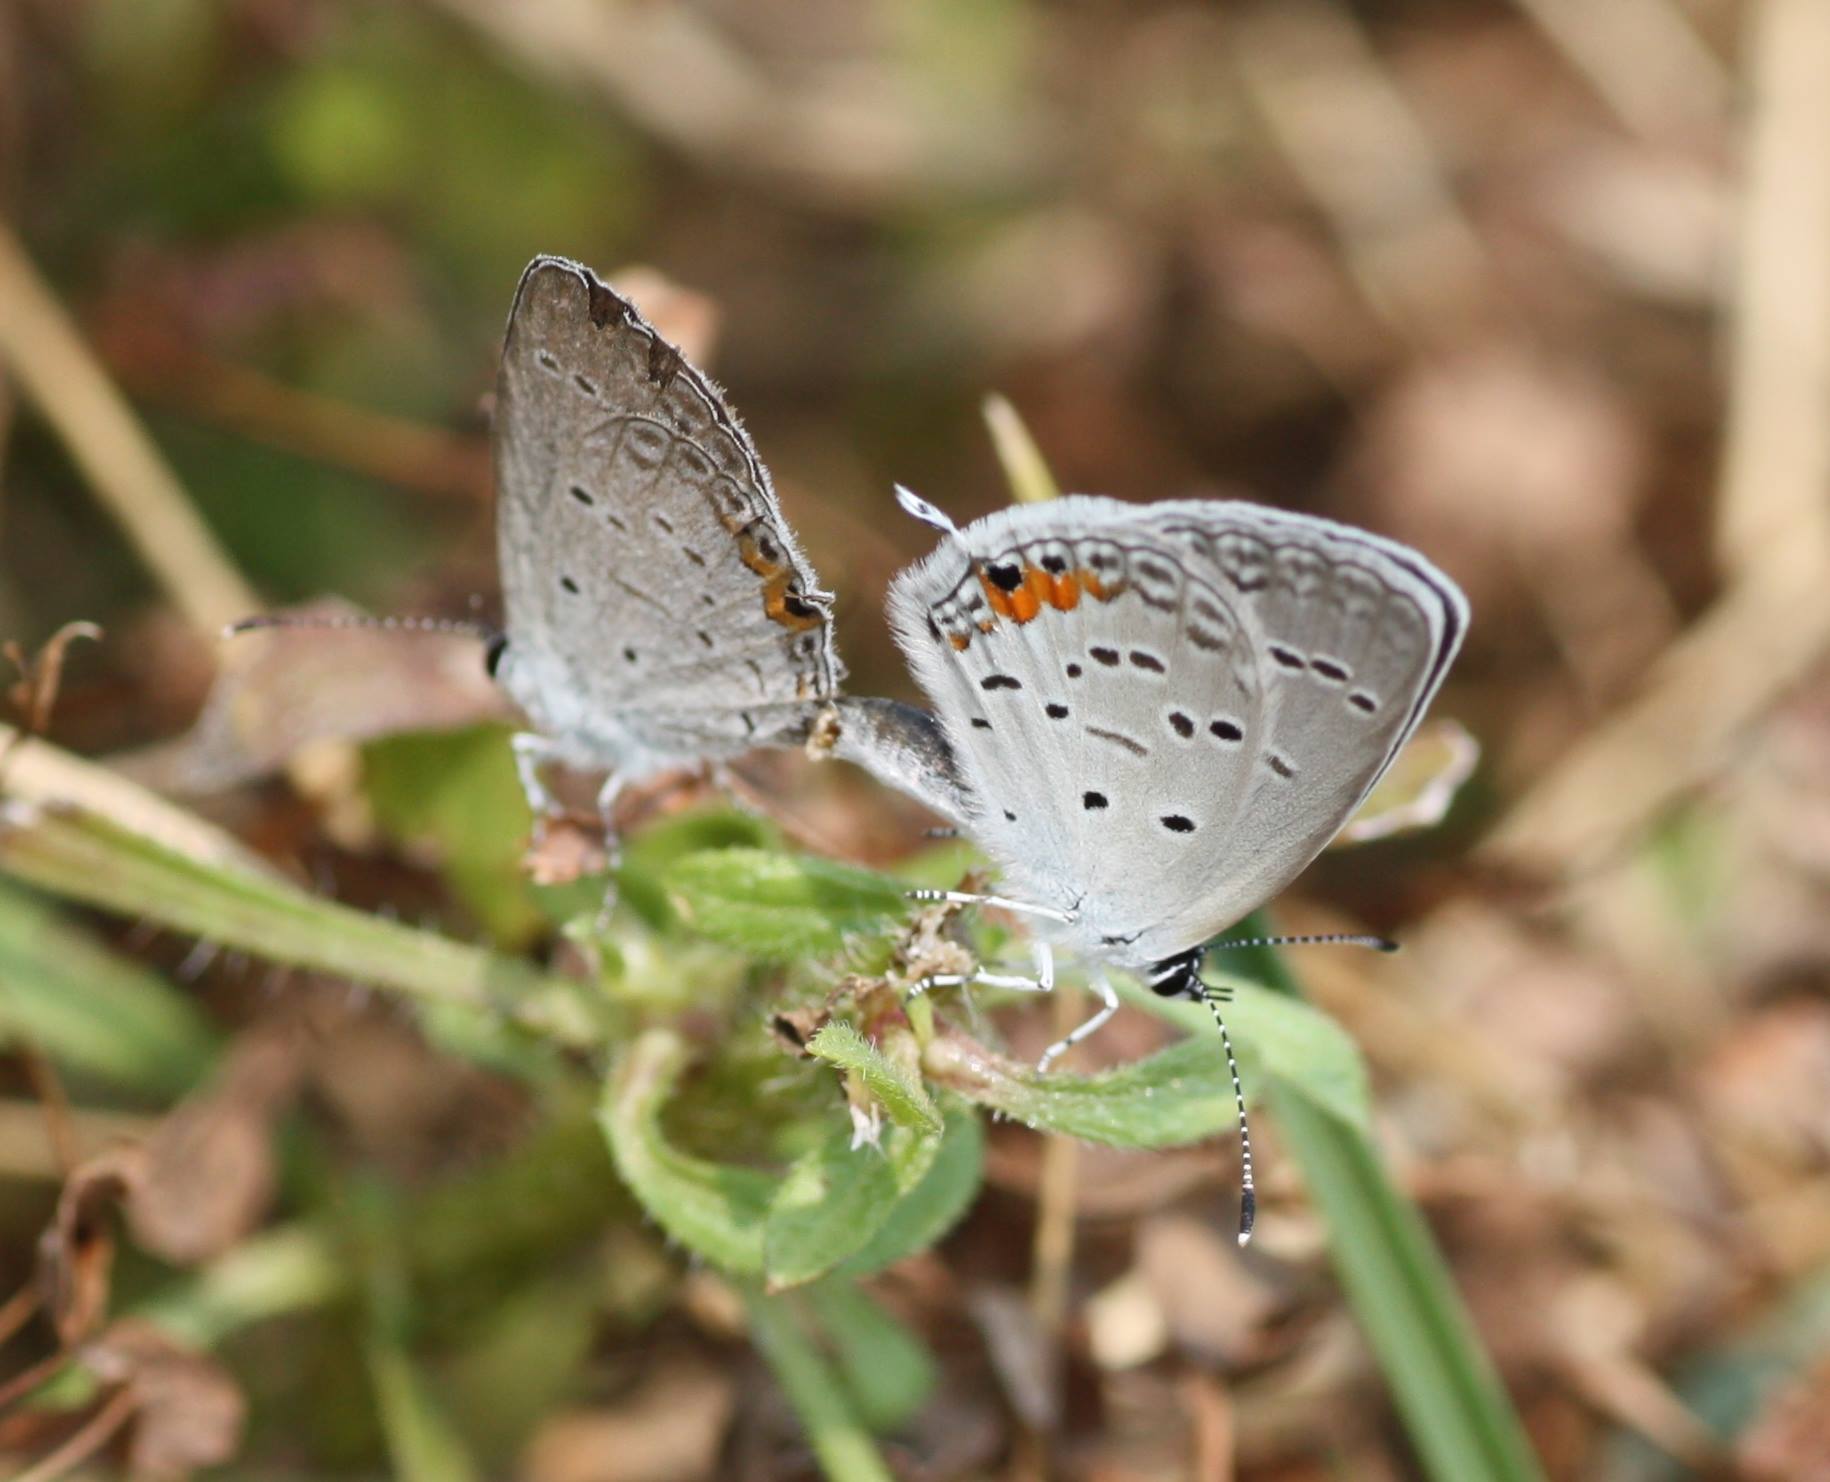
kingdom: Animalia
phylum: Arthropoda
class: Insecta
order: Lepidoptera
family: Lycaenidae
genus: Elkalyce
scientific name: Elkalyce comyntas
